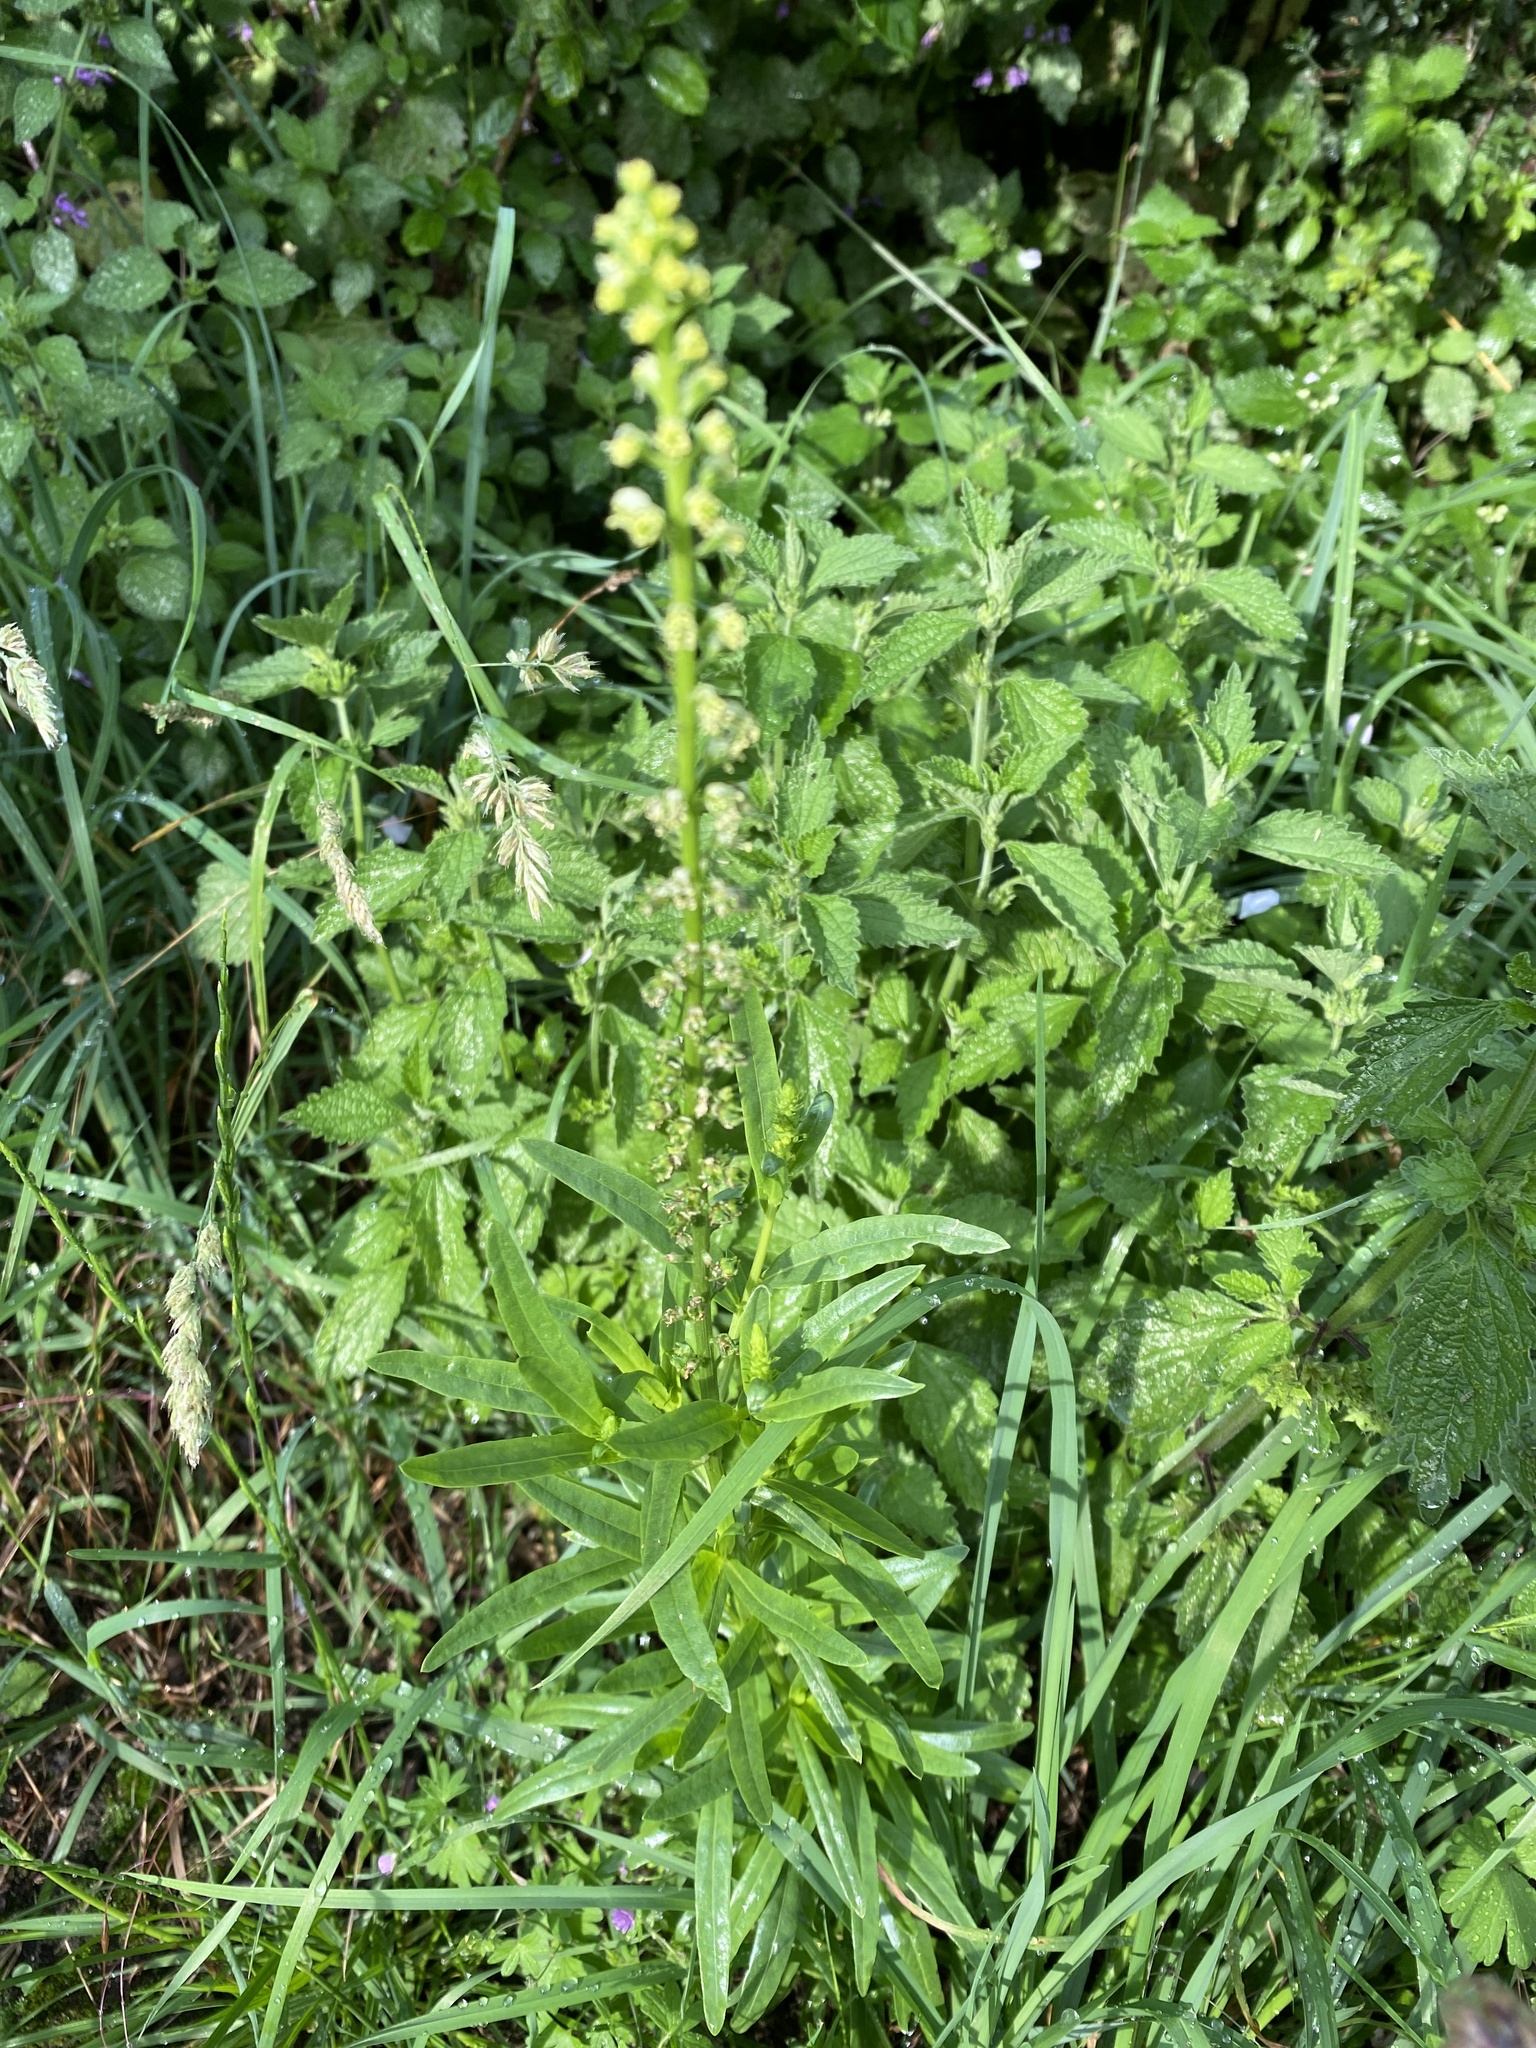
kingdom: Plantae
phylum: Tracheophyta
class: Magnoliopsida
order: Brassicales
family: Resedaceae
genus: Reseda
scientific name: Reseda luteola
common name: Weld
